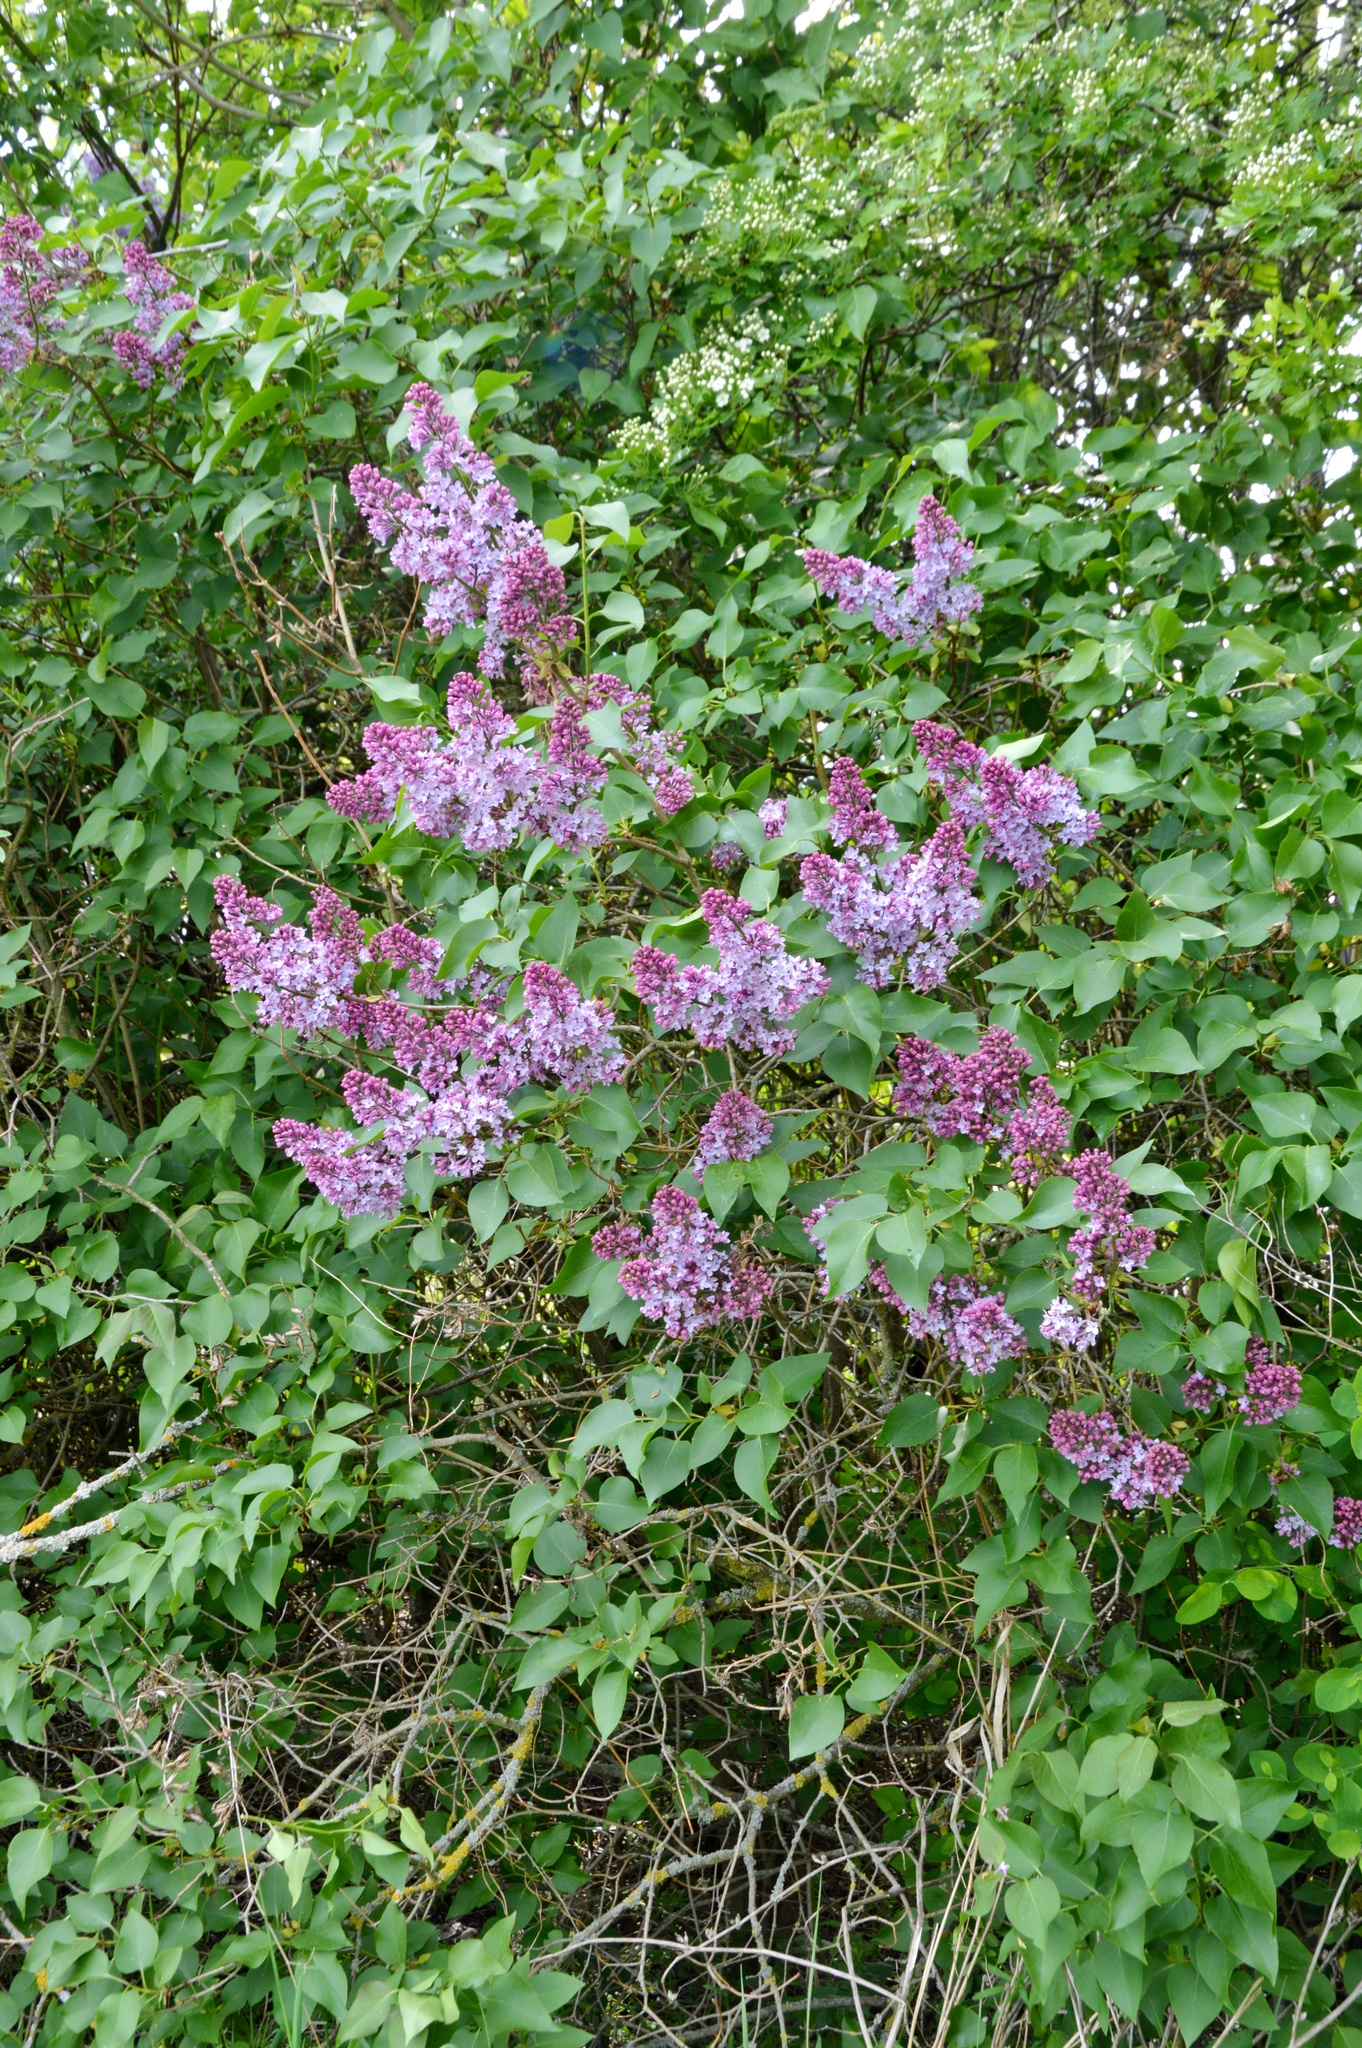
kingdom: Plantae
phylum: Tracheophyta
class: Magnoliopsida
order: Lamiales
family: Oleaceae
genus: Syringa
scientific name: Syringa vulgaris
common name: Common lilac
